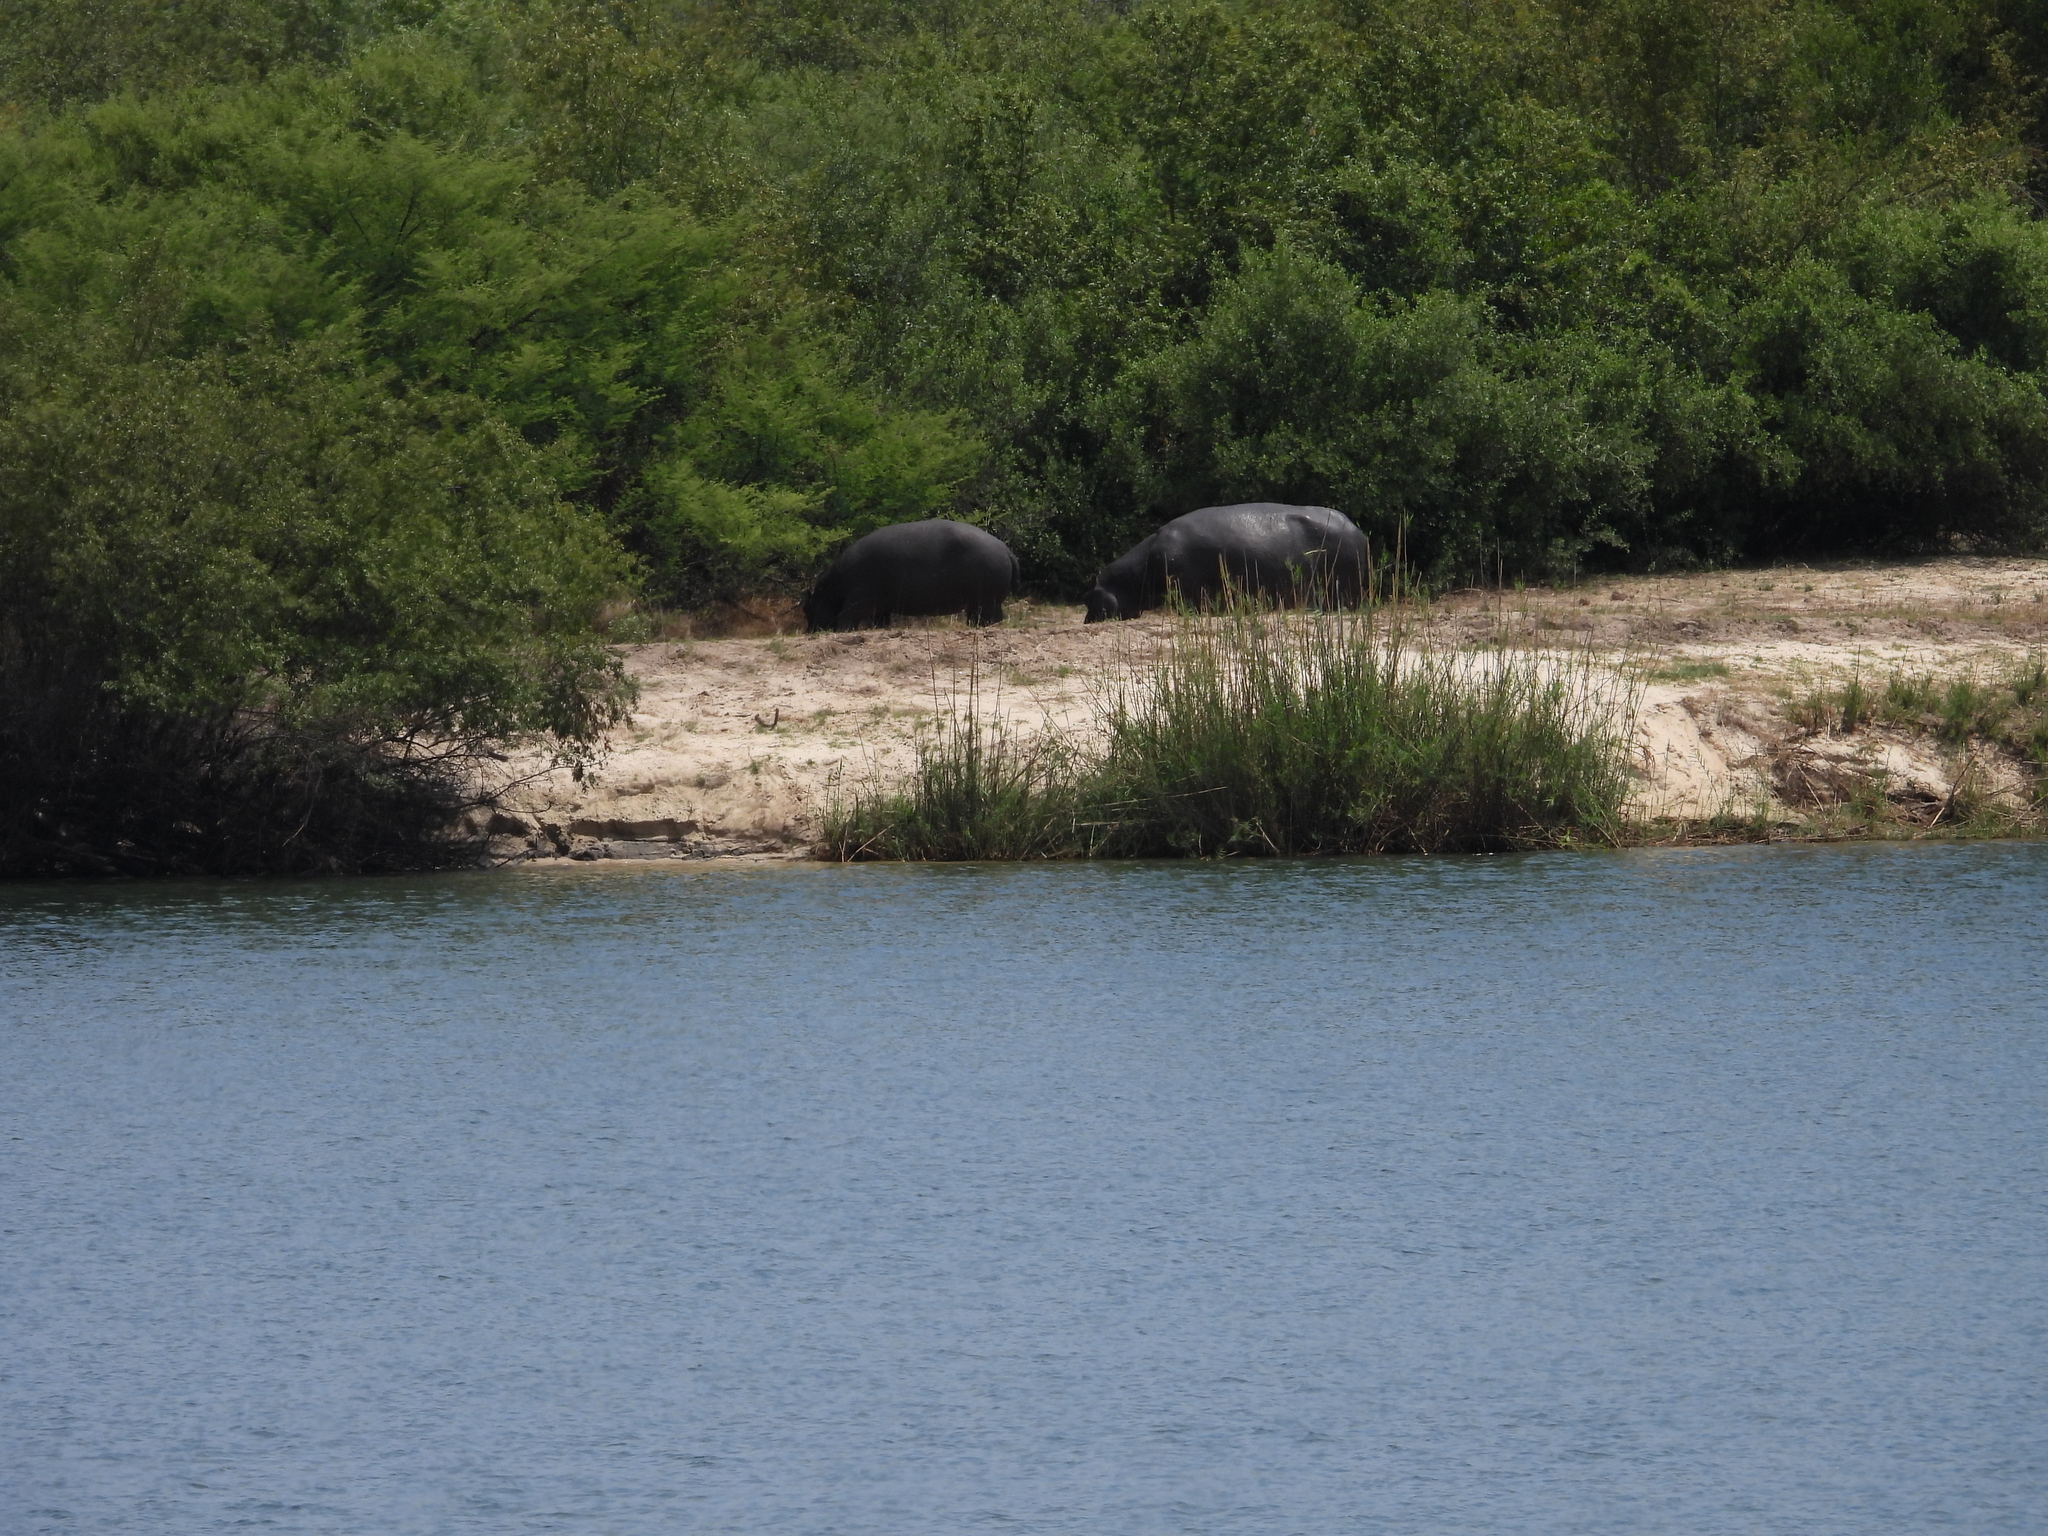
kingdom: Animalia
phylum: Chordata
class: Mammalia
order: Artiodactyla
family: Hippopotamidae
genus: Hippopotamus
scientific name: Hippopotamus amphibius
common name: Common hippopotamus
